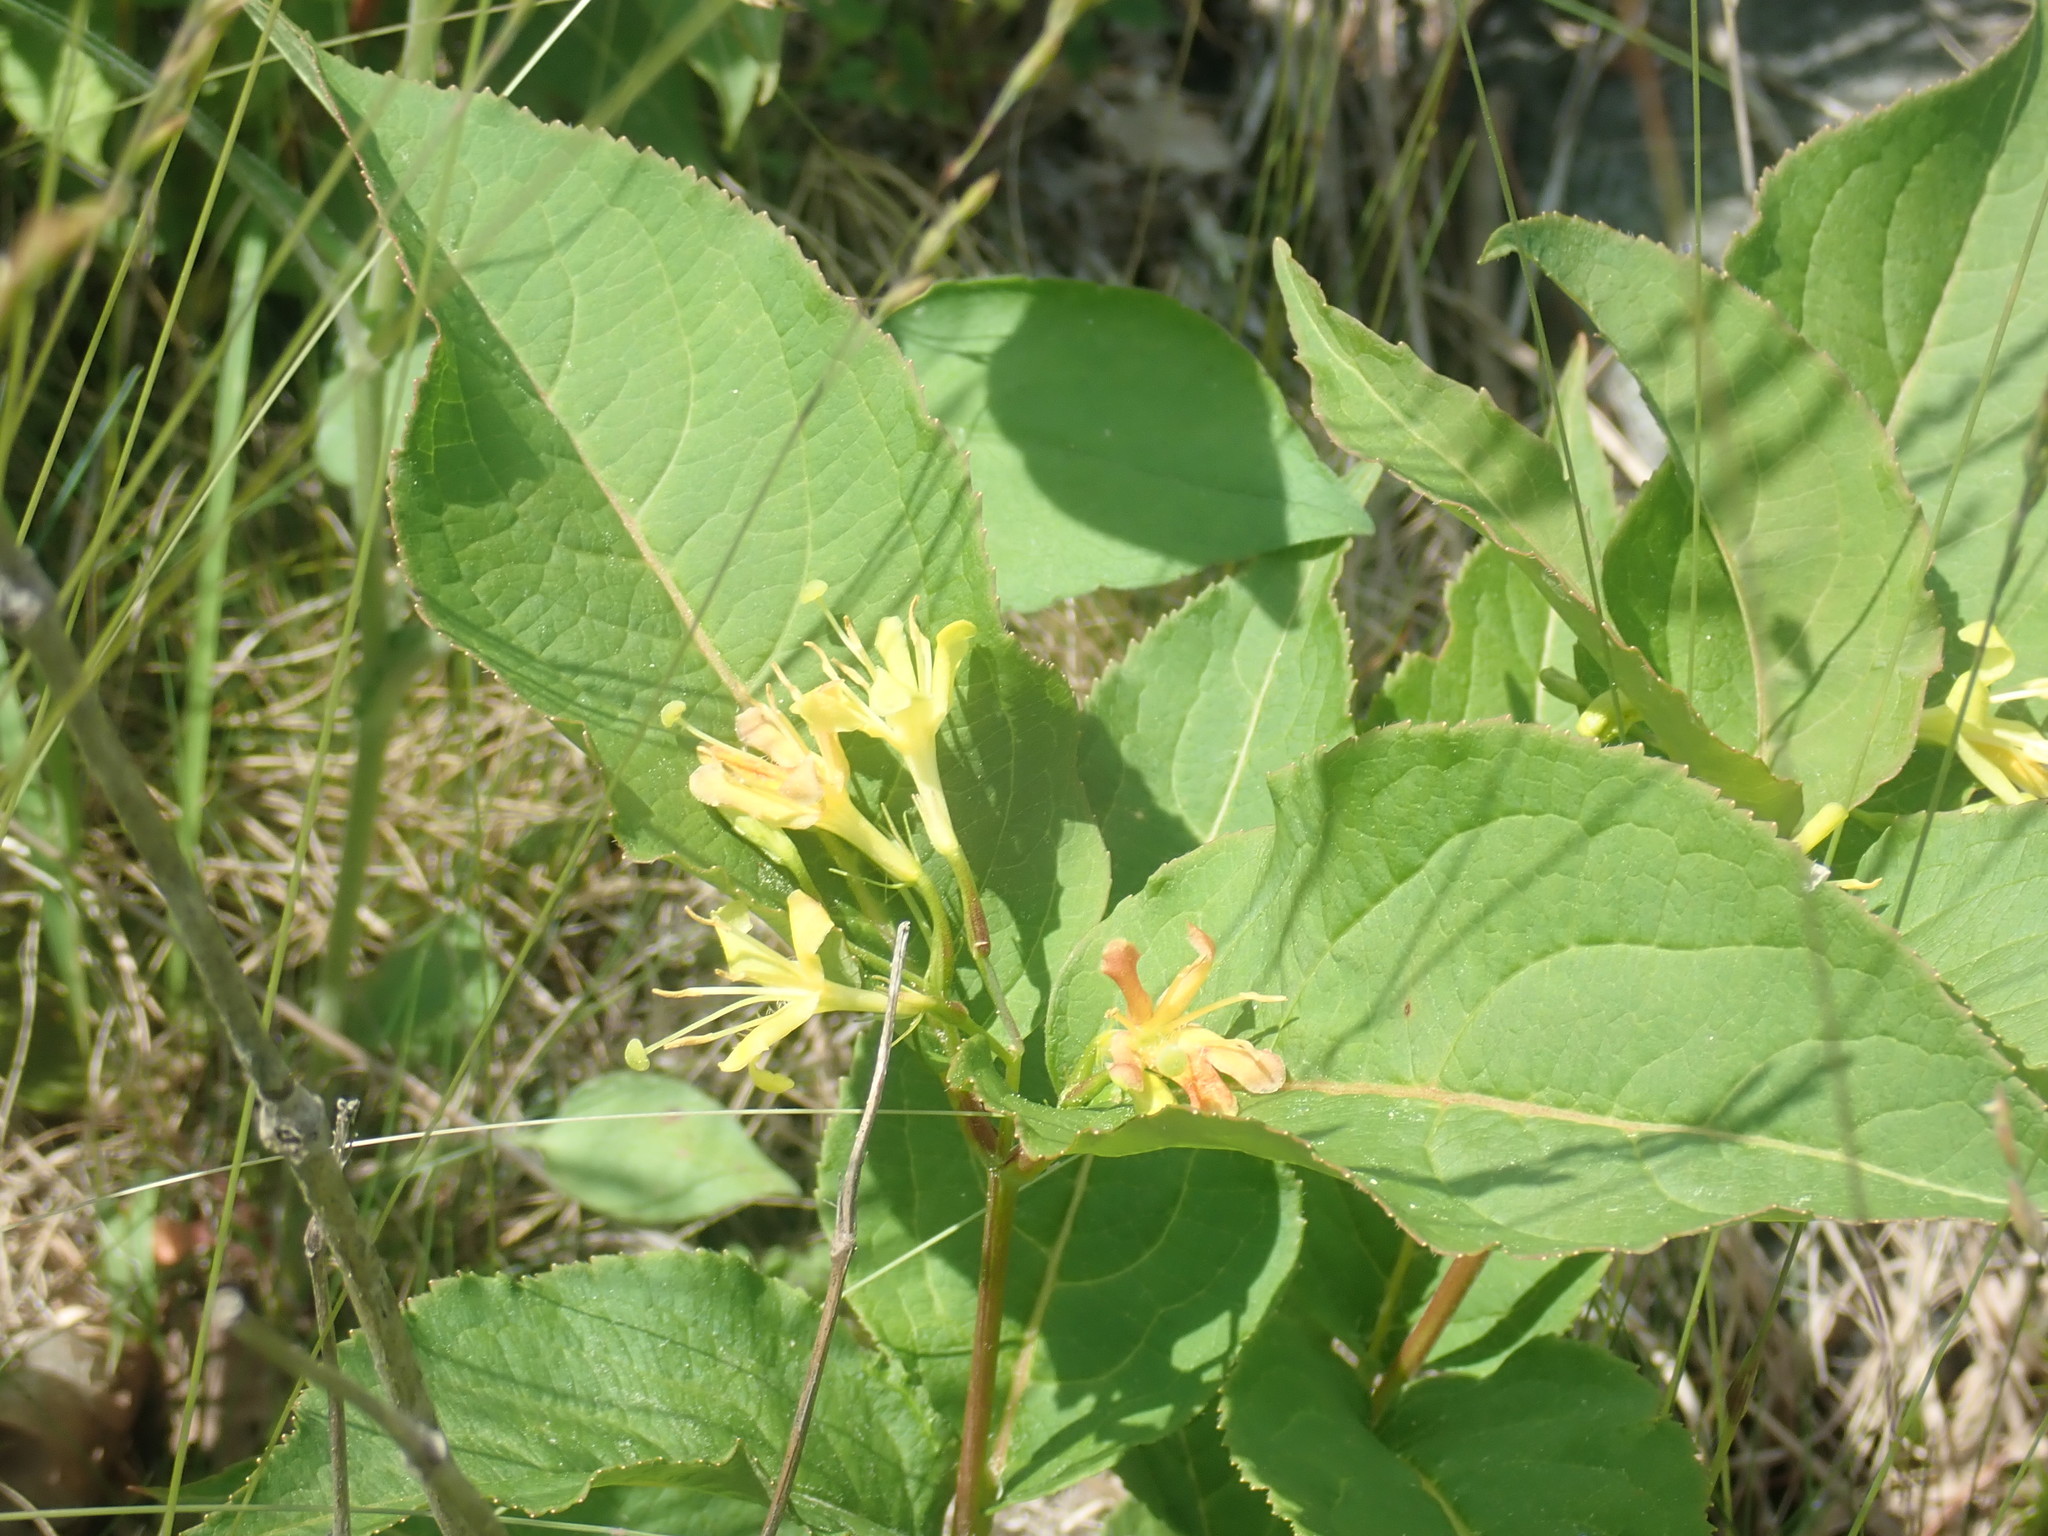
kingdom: Plantae
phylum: Tracheophyta
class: Magnoliopsida
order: Dipsacales
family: Caprifoliaceae
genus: Diervilla
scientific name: Diervilla lonicera
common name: Bush-honeysuckle
